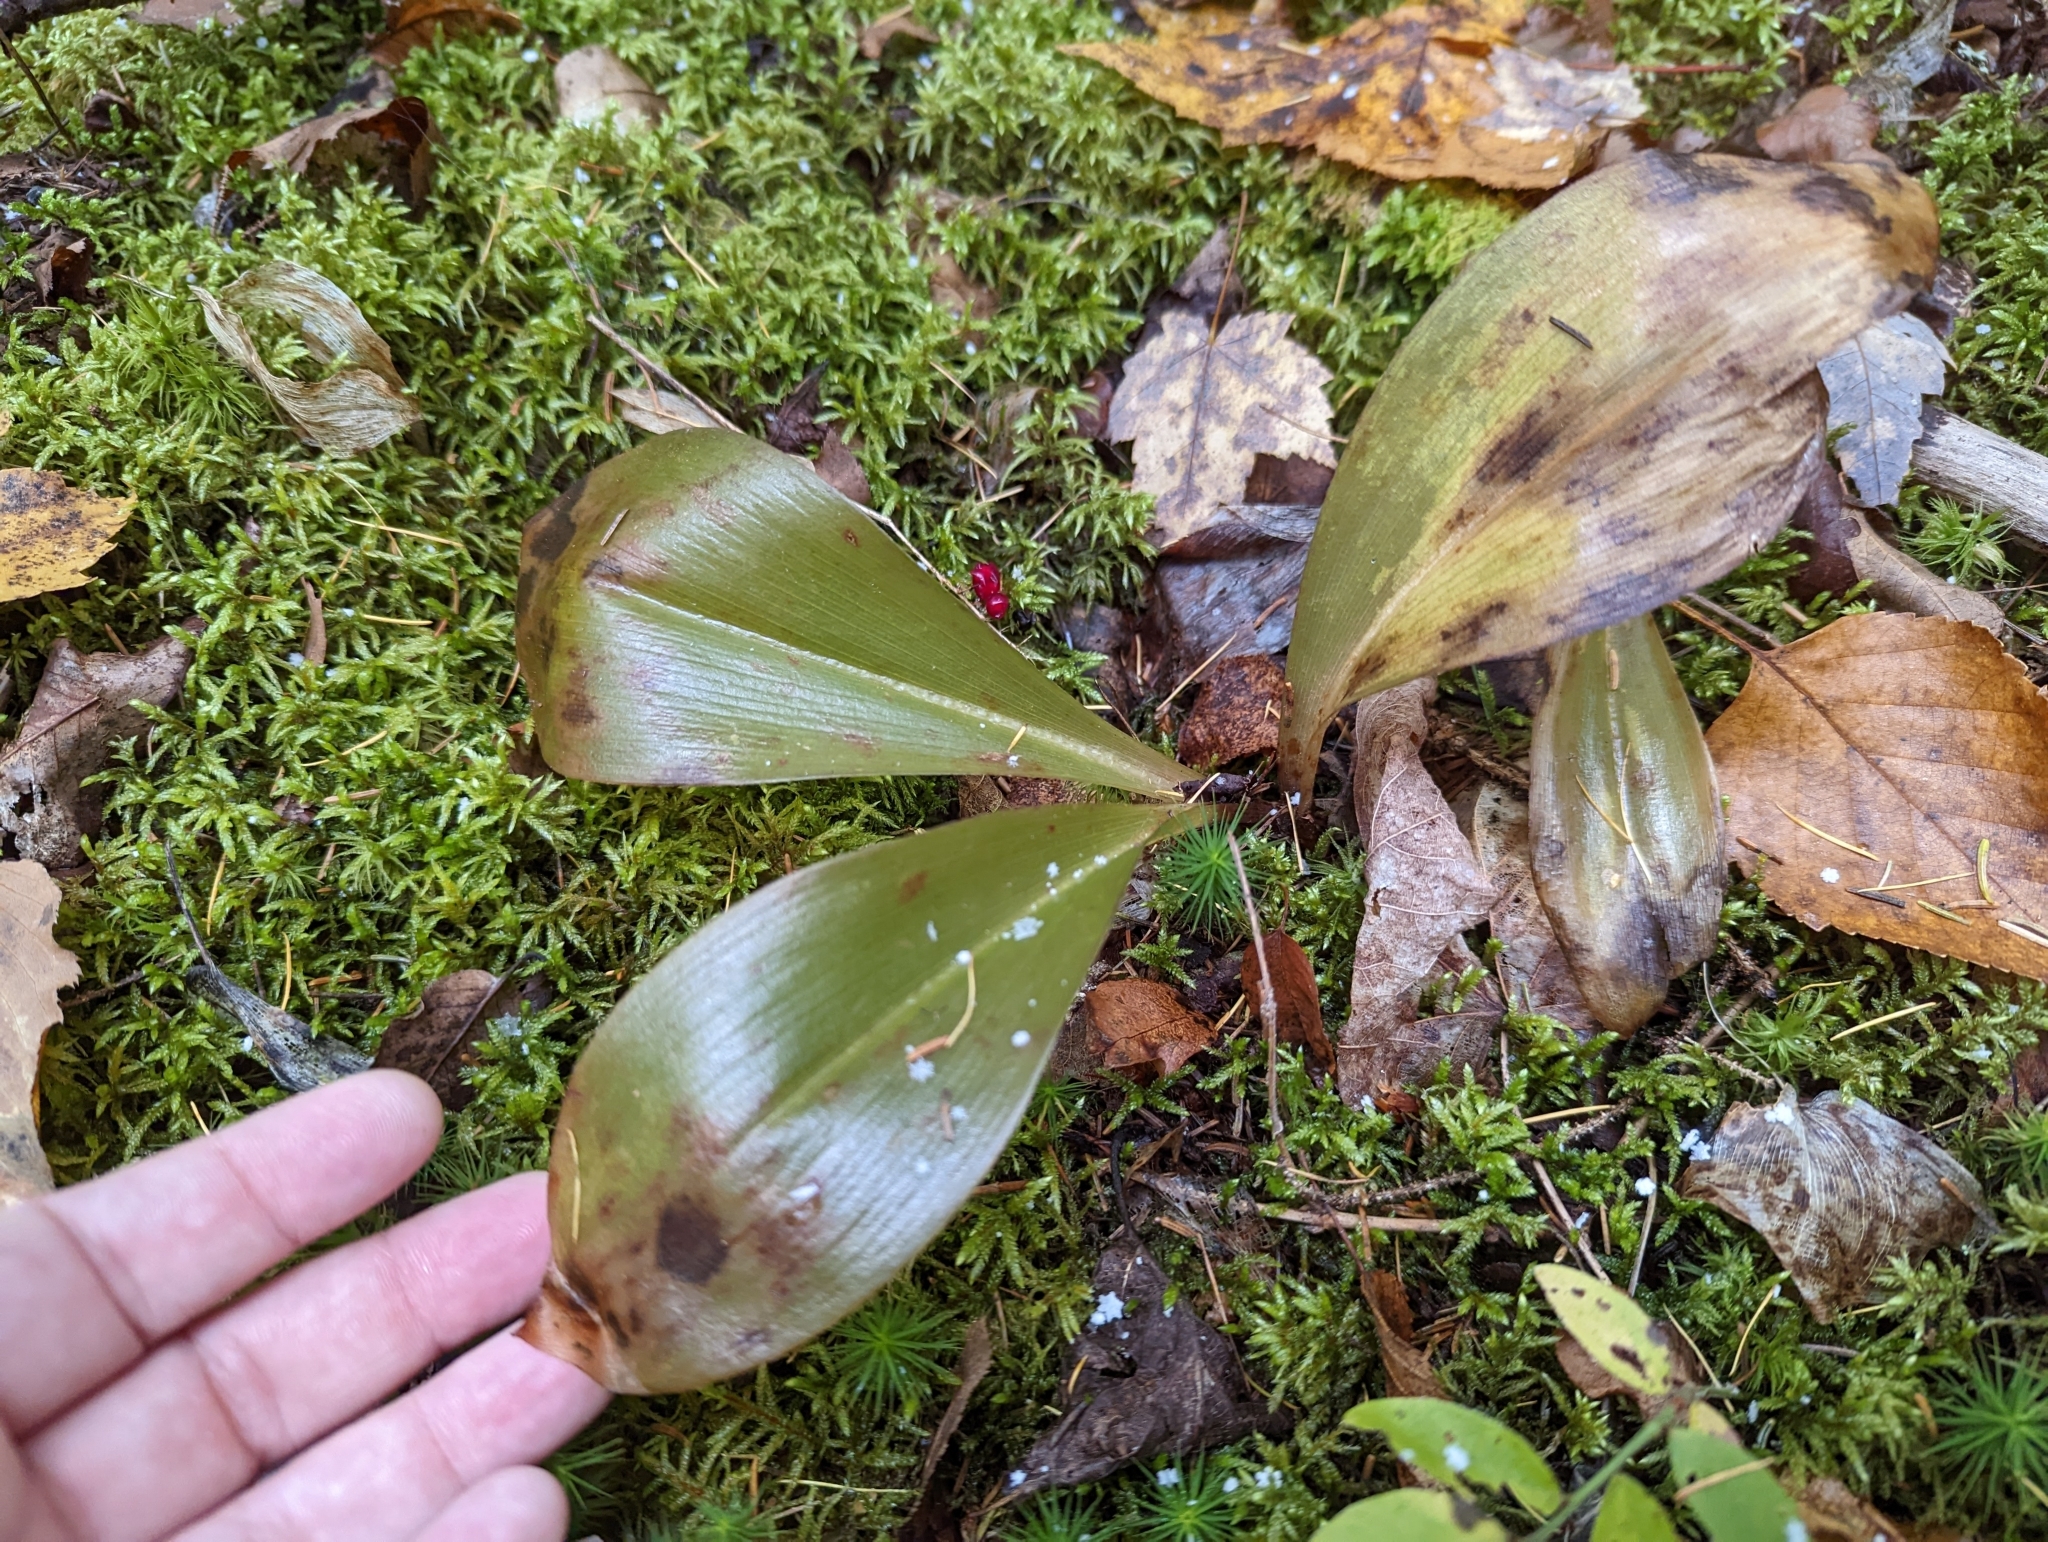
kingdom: Plantae
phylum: Tracheophyta
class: Liliopsida
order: Liliales
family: Liliaceae
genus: Clintonia
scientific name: Clintonia borealis
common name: Yellow clintonia
